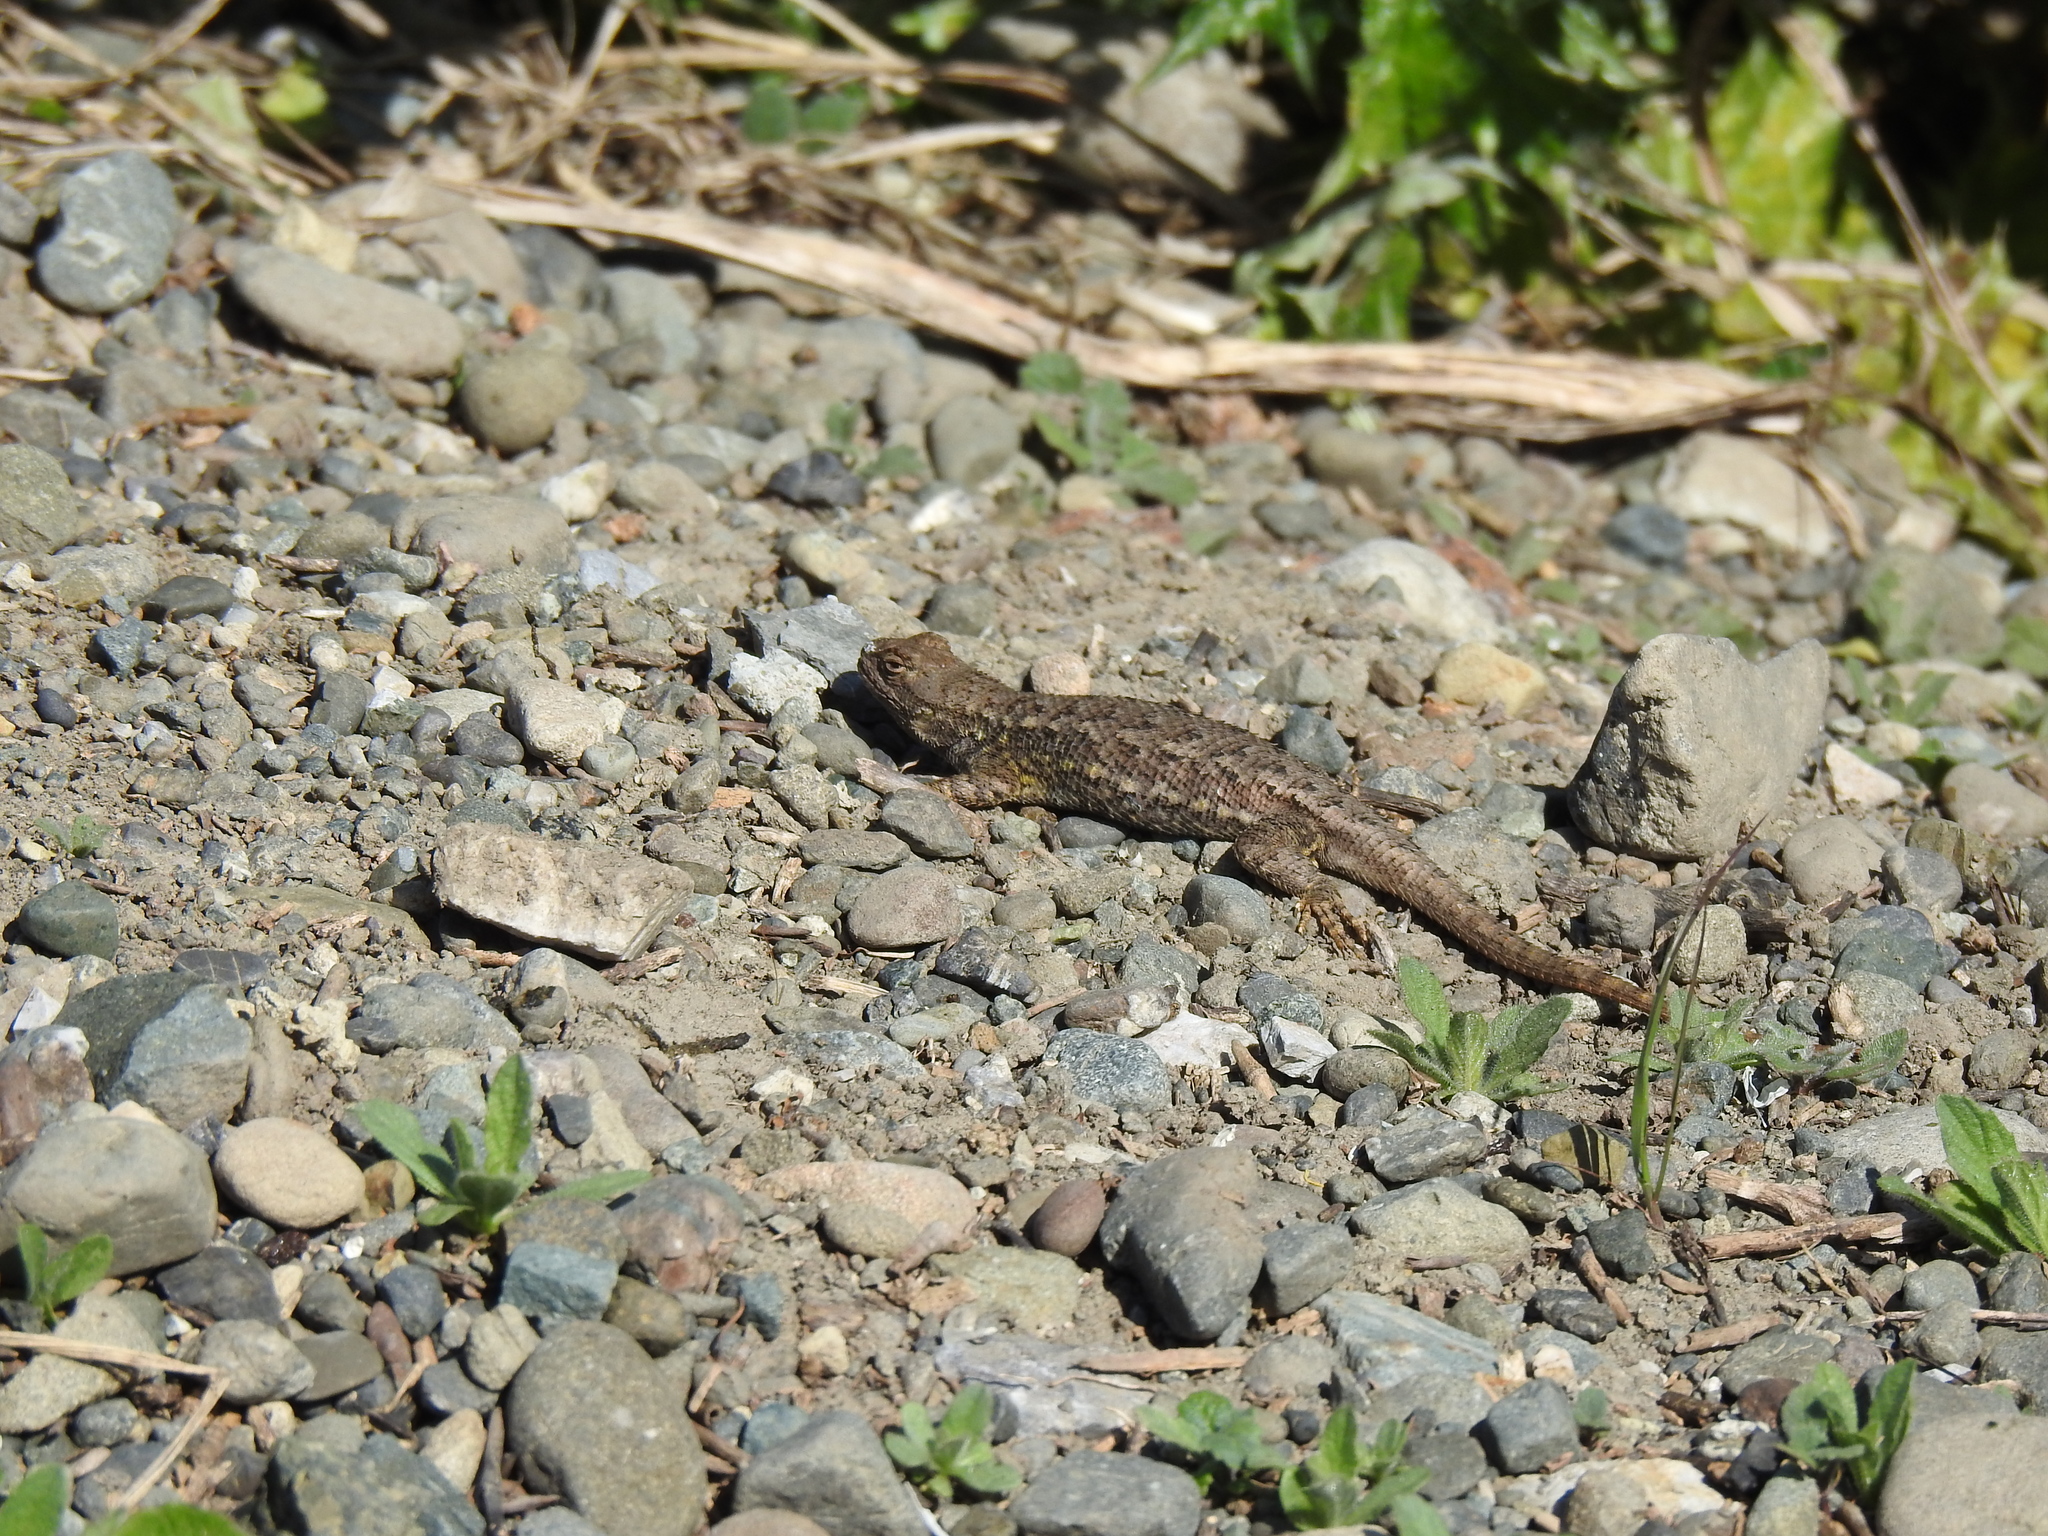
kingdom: Animalia
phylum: Chordata
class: Squamata
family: Phrynosomatidae
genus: Sceloporus
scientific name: Sceloporus occidentalis
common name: Western fence lizard
